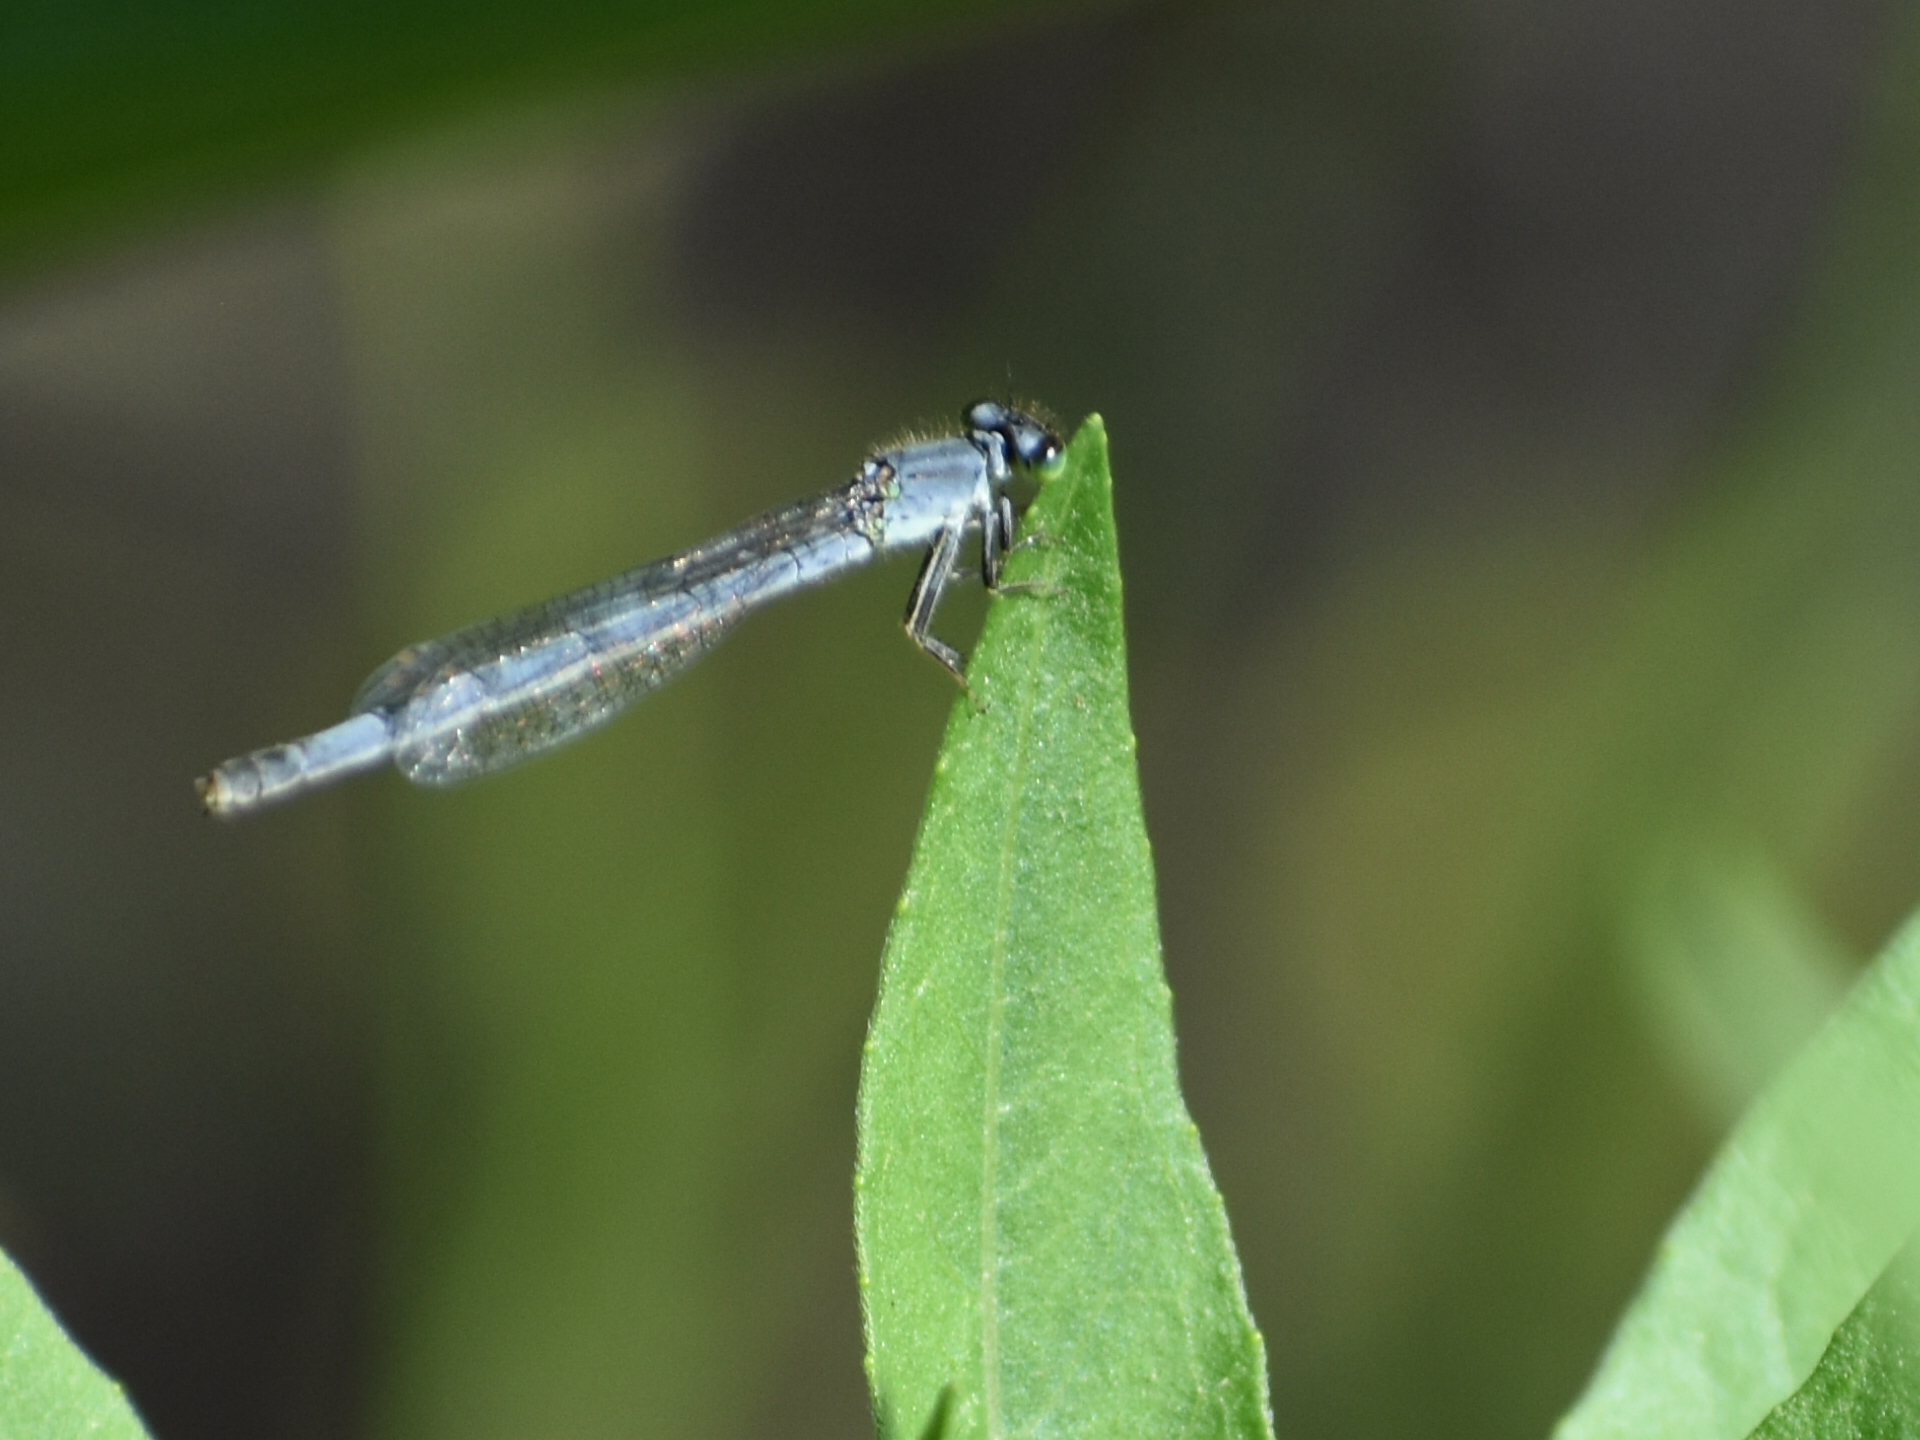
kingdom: Animalia
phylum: Arthropoda
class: Insecta
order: Odonata
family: Coenagrionidae
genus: Ischnura
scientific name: Ischnura verticalis
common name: Eastern forktail
